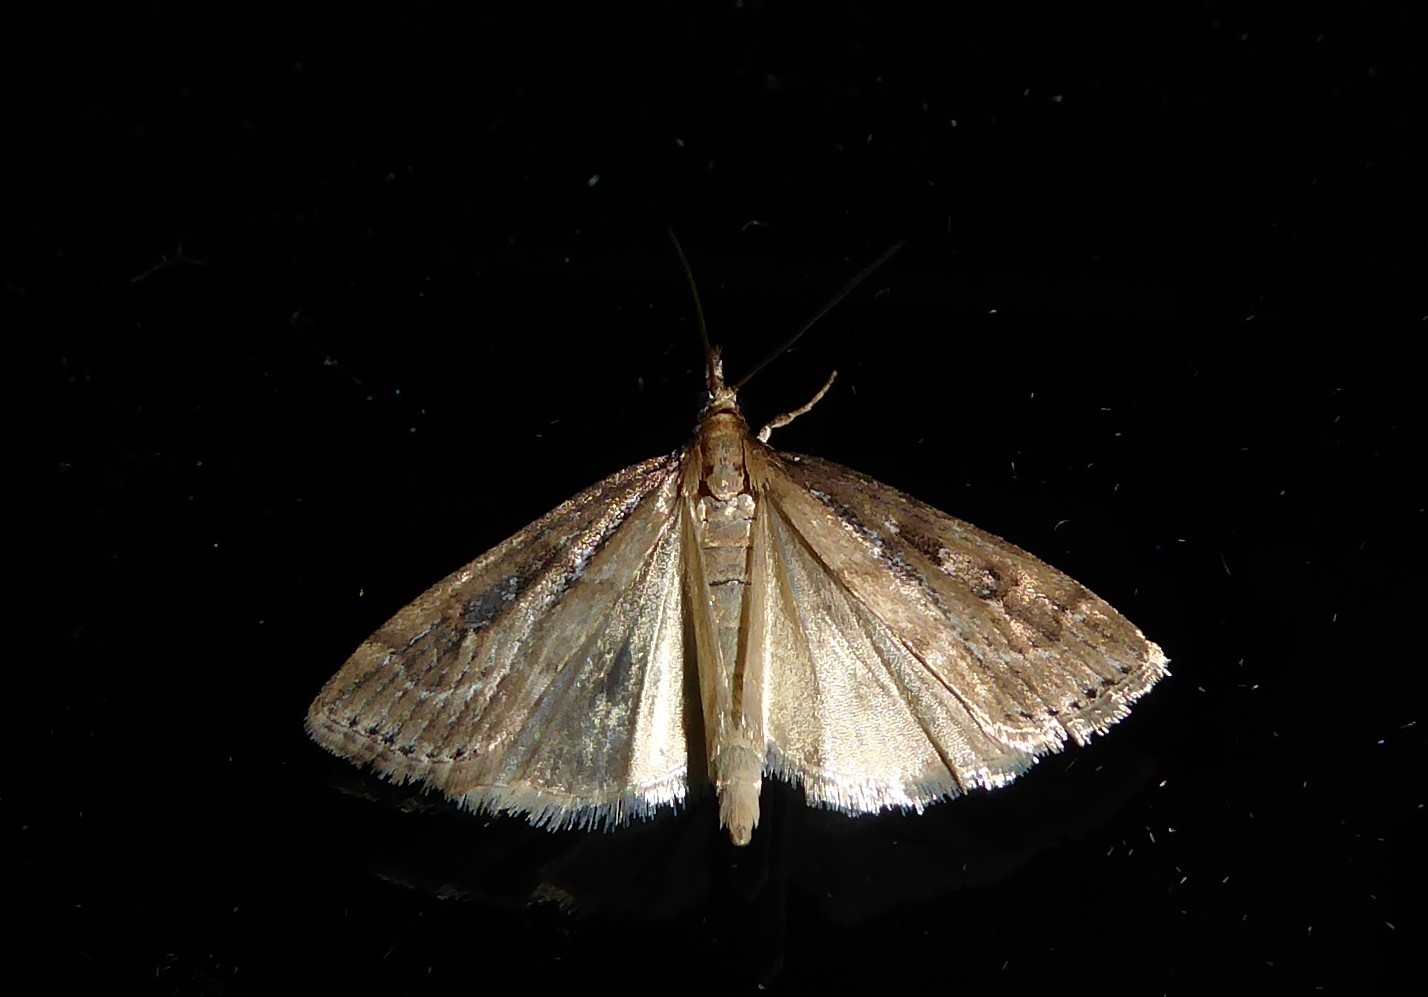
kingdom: Animalia
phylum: Arthropoda
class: Insecta
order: Lepidoptera
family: Crambidae
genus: Eudonia
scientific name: Eudonia octophora
